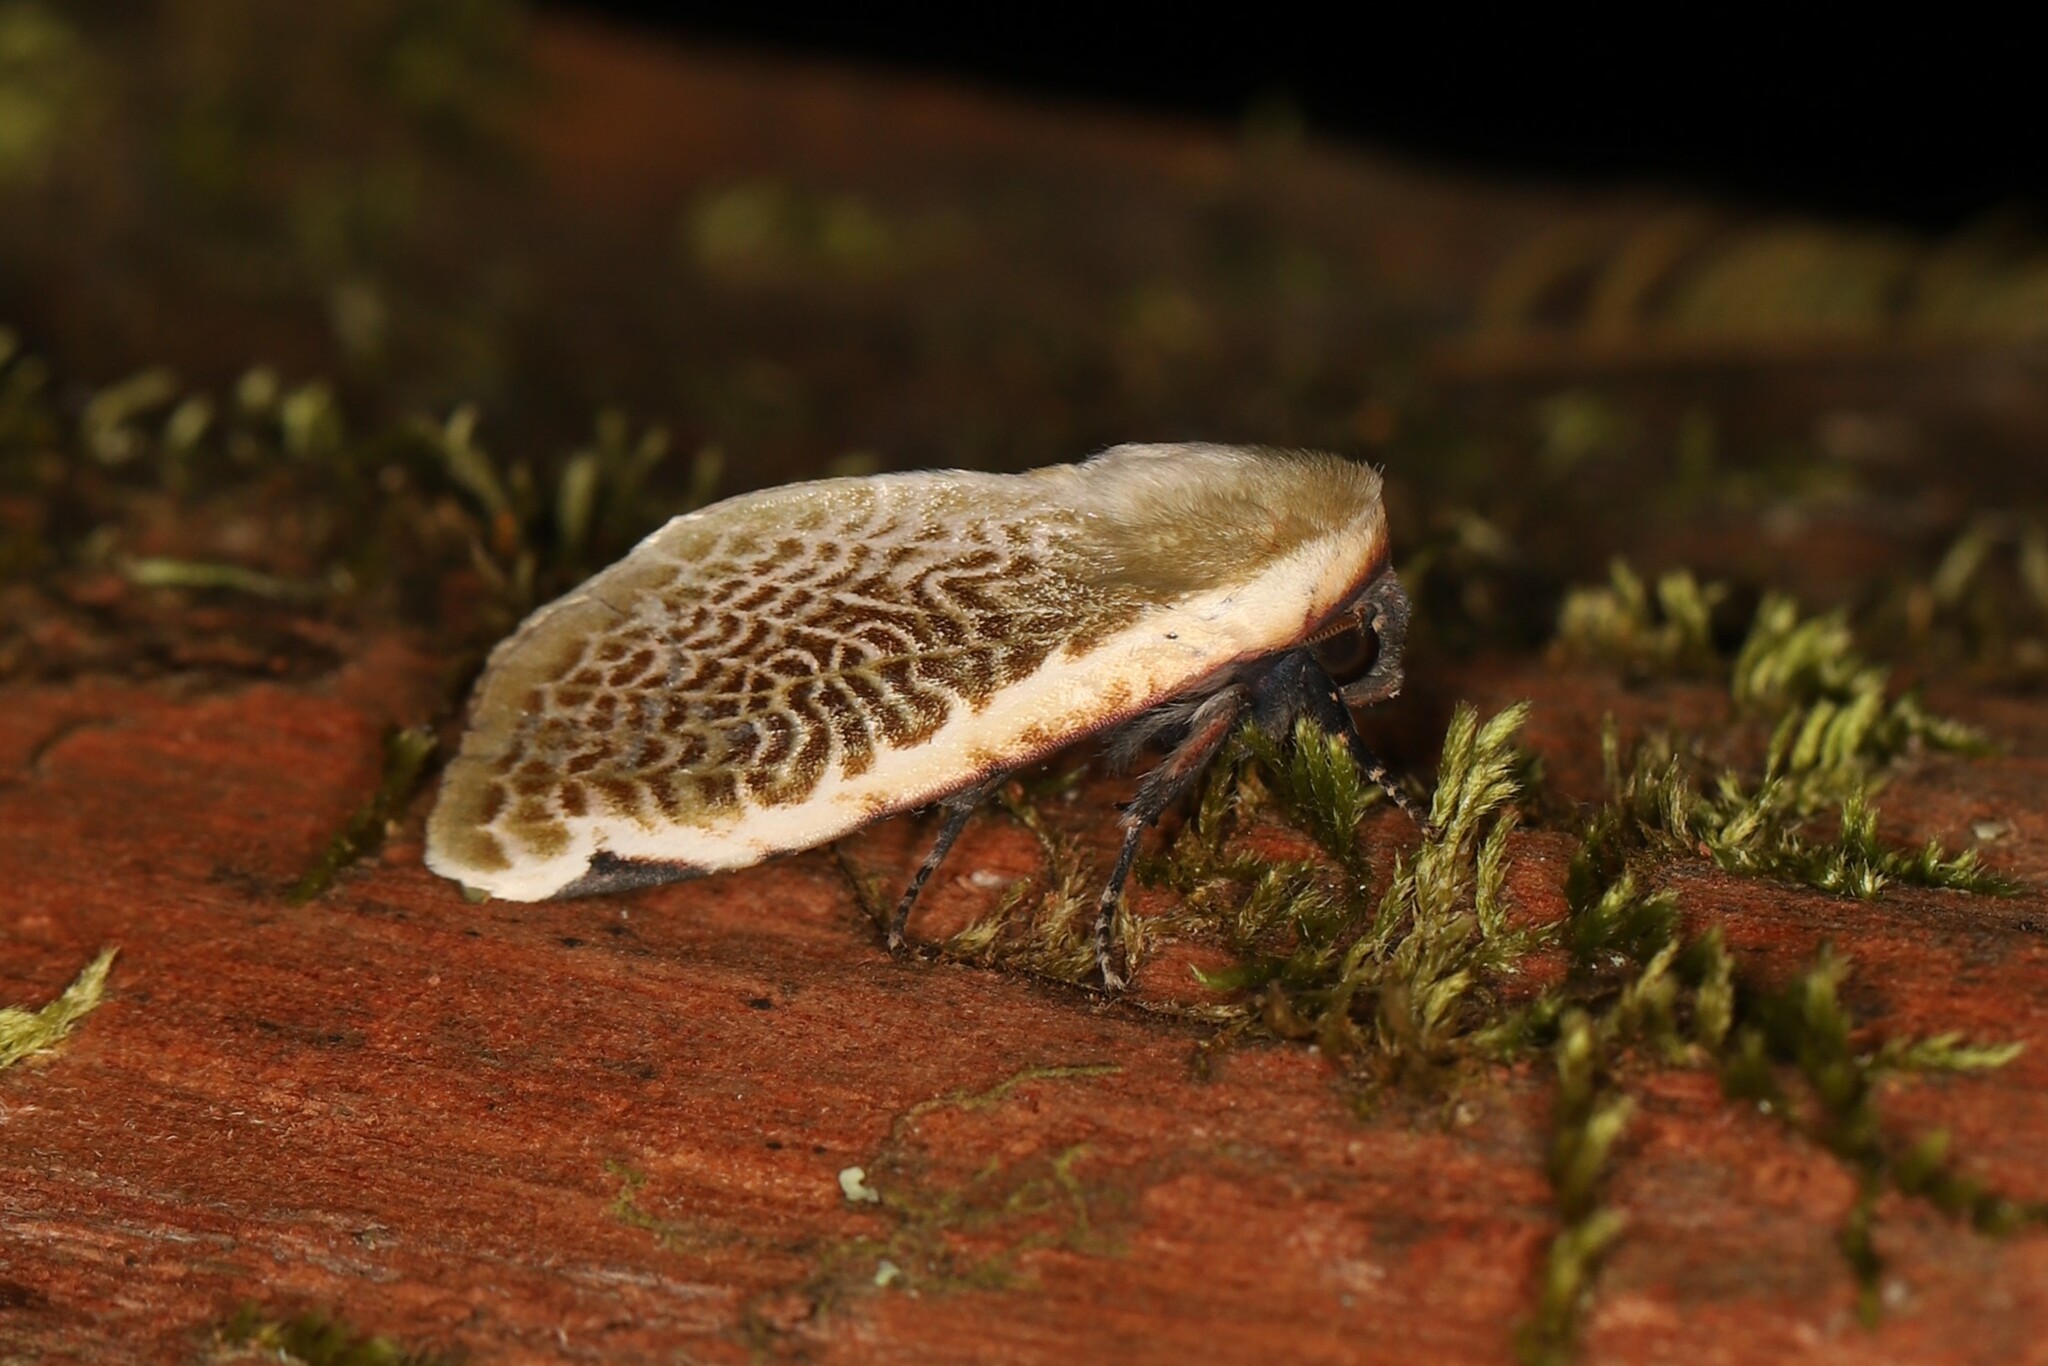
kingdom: Animalia
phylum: Arthropoda
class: Insecta
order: Lepidoptera
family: Noctuidae
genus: Oxythres
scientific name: Oxythres splendens
